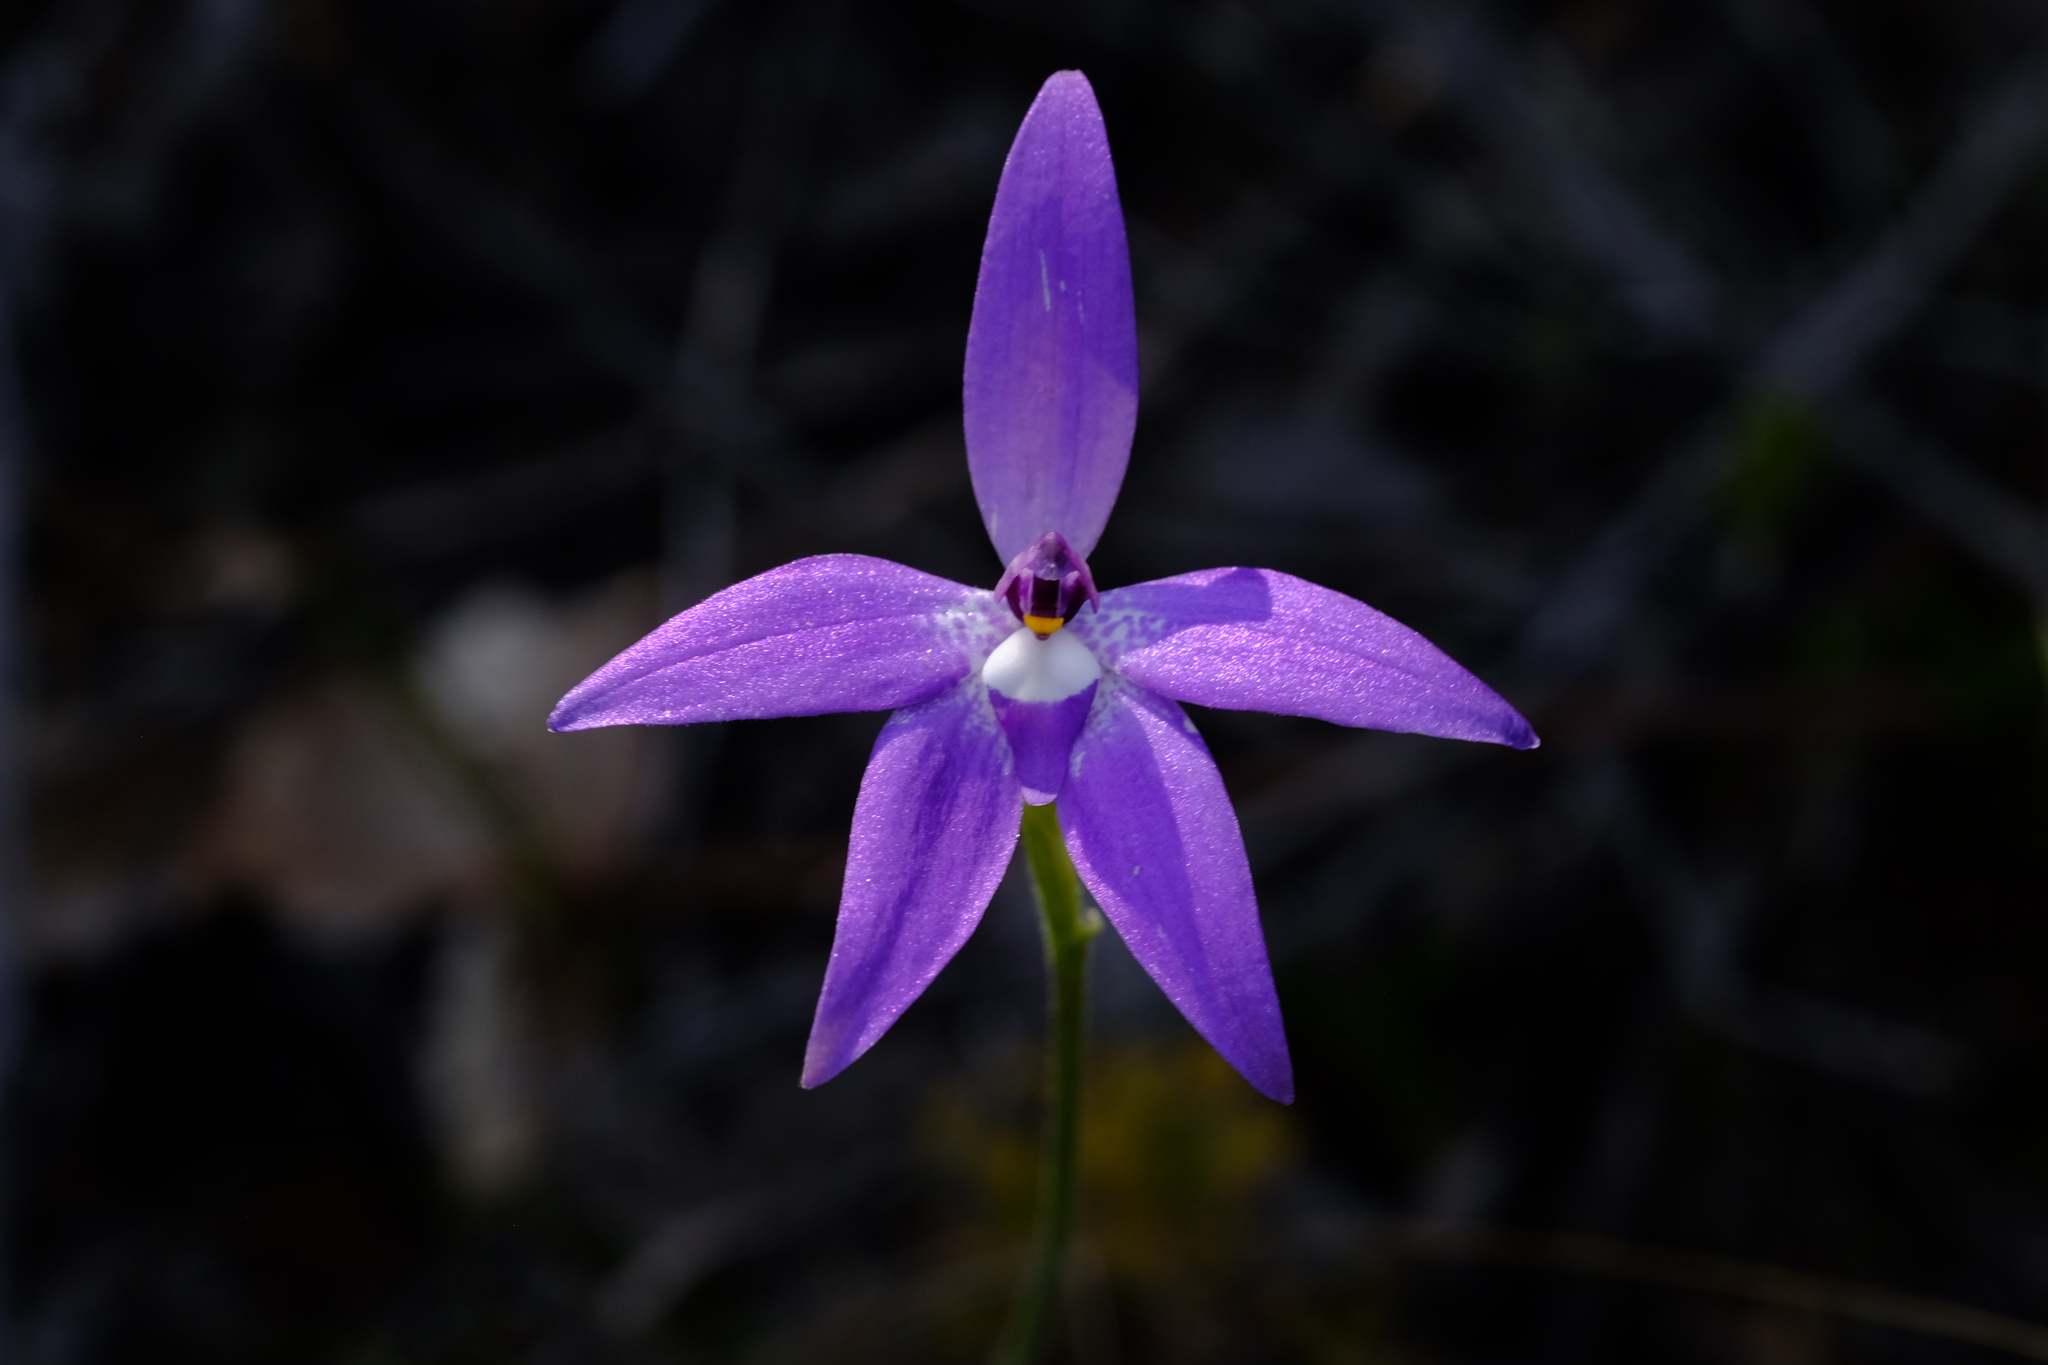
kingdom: Plantae
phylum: Tracheophyta
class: Liliopsida
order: Asparagales
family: Orchidaceae
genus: Caladenia
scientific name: Caladenia major
